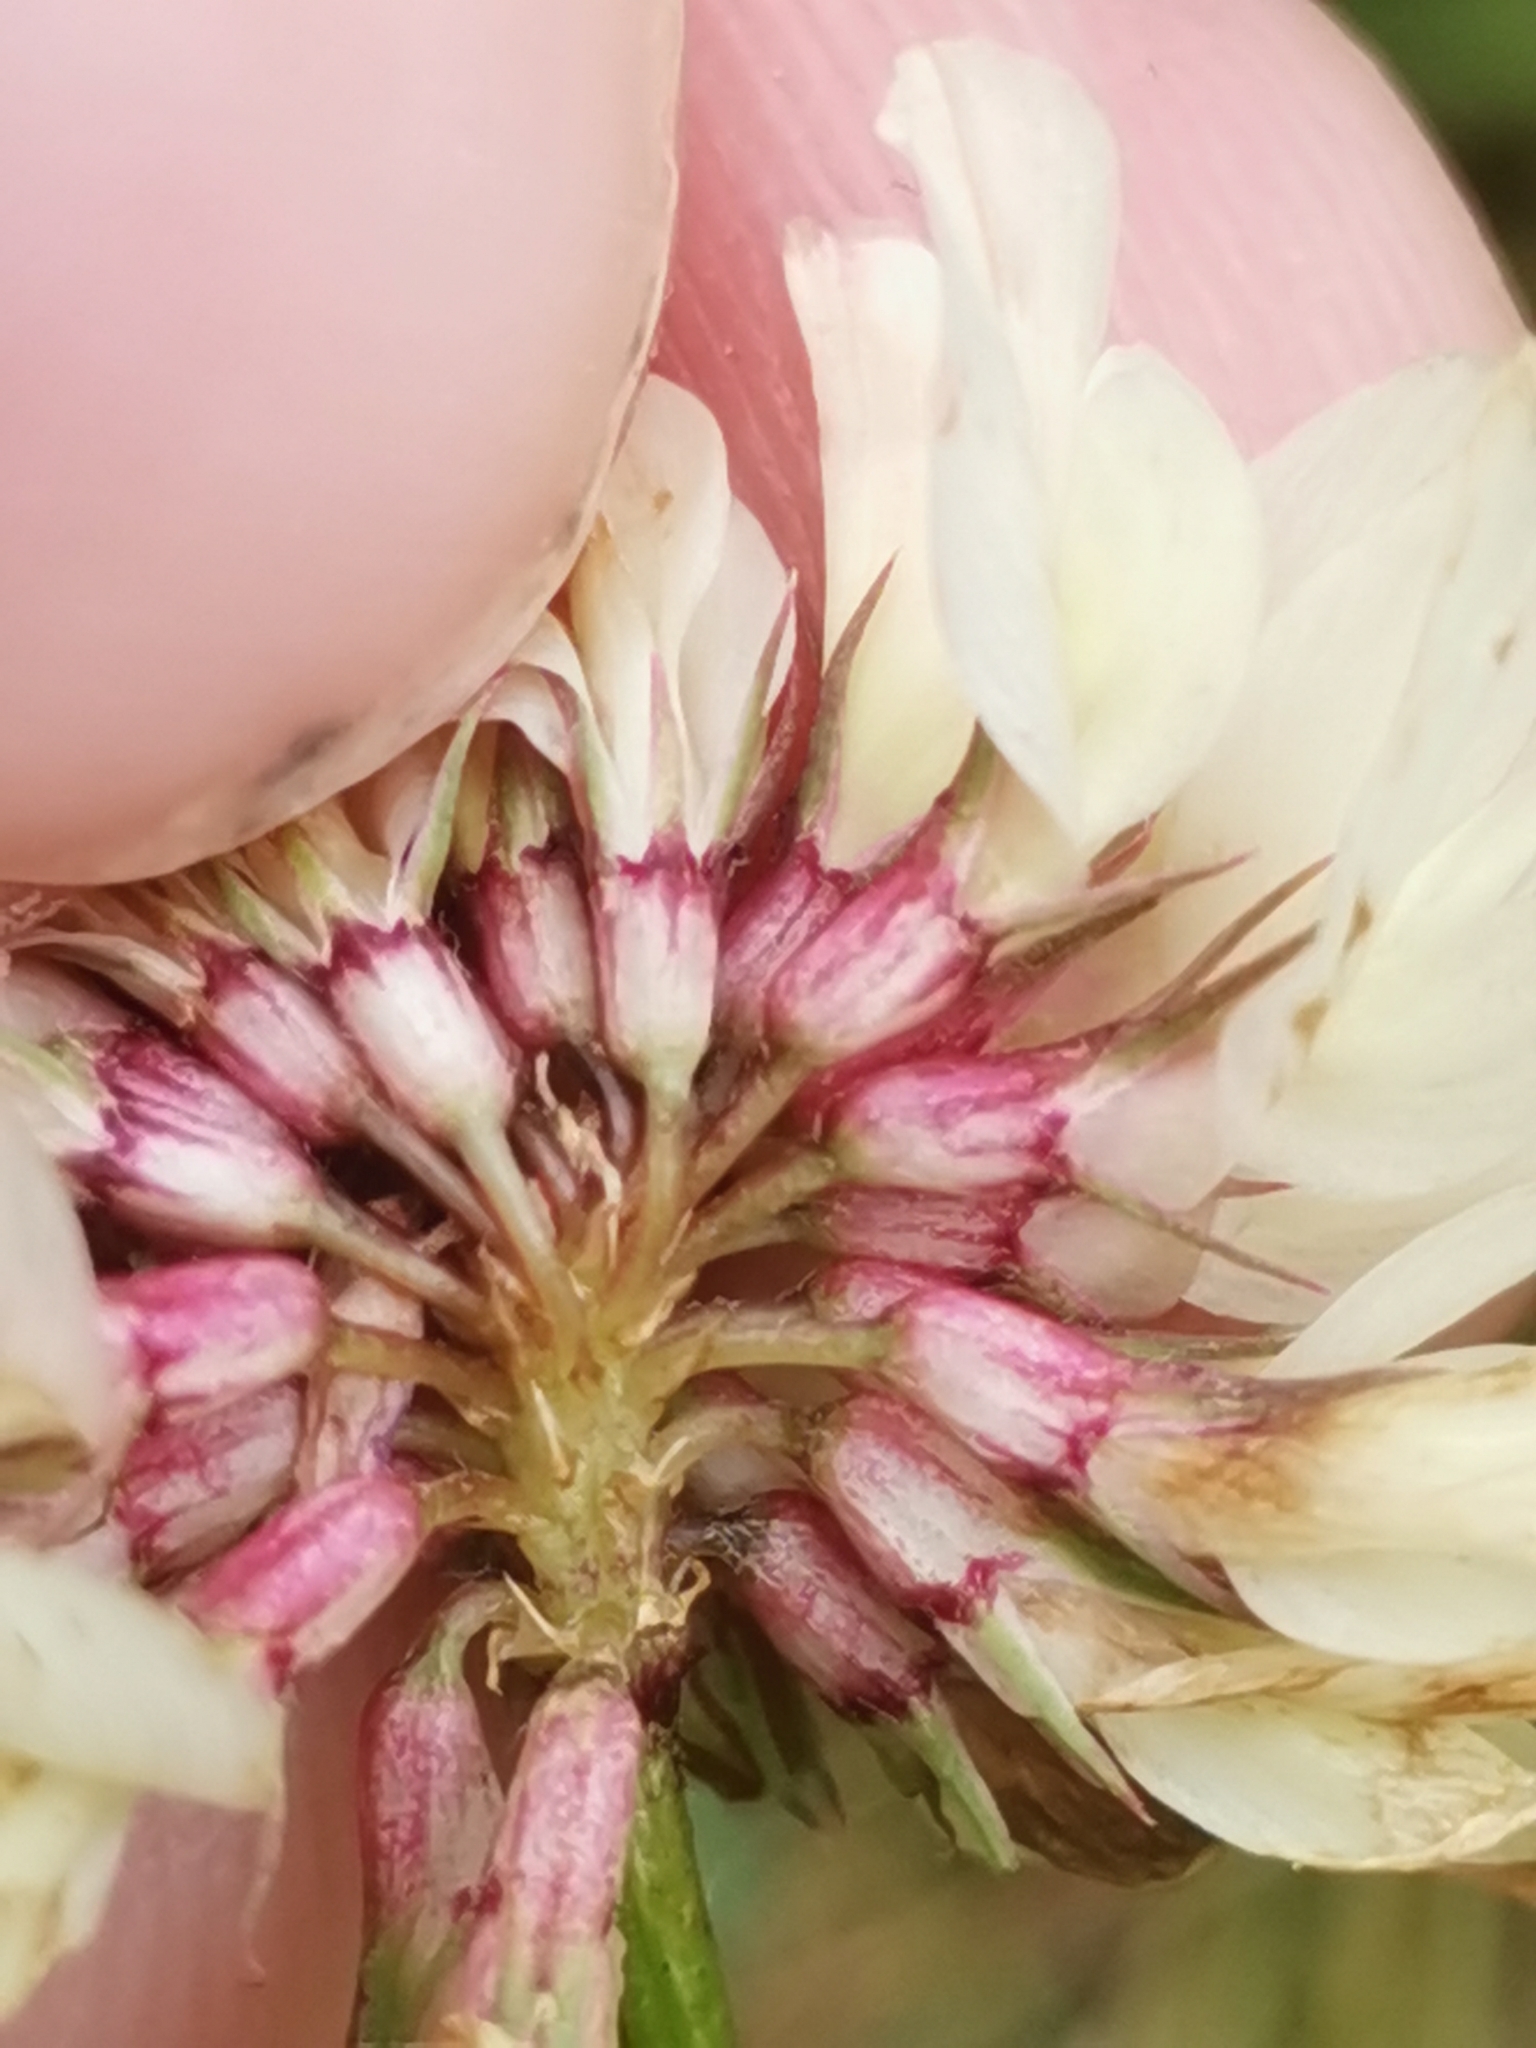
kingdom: Plantae
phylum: Tracheophyta
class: Magnoliopsida
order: Fabales
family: Fabaceae
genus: Trifolium
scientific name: Trifolium pallescens
